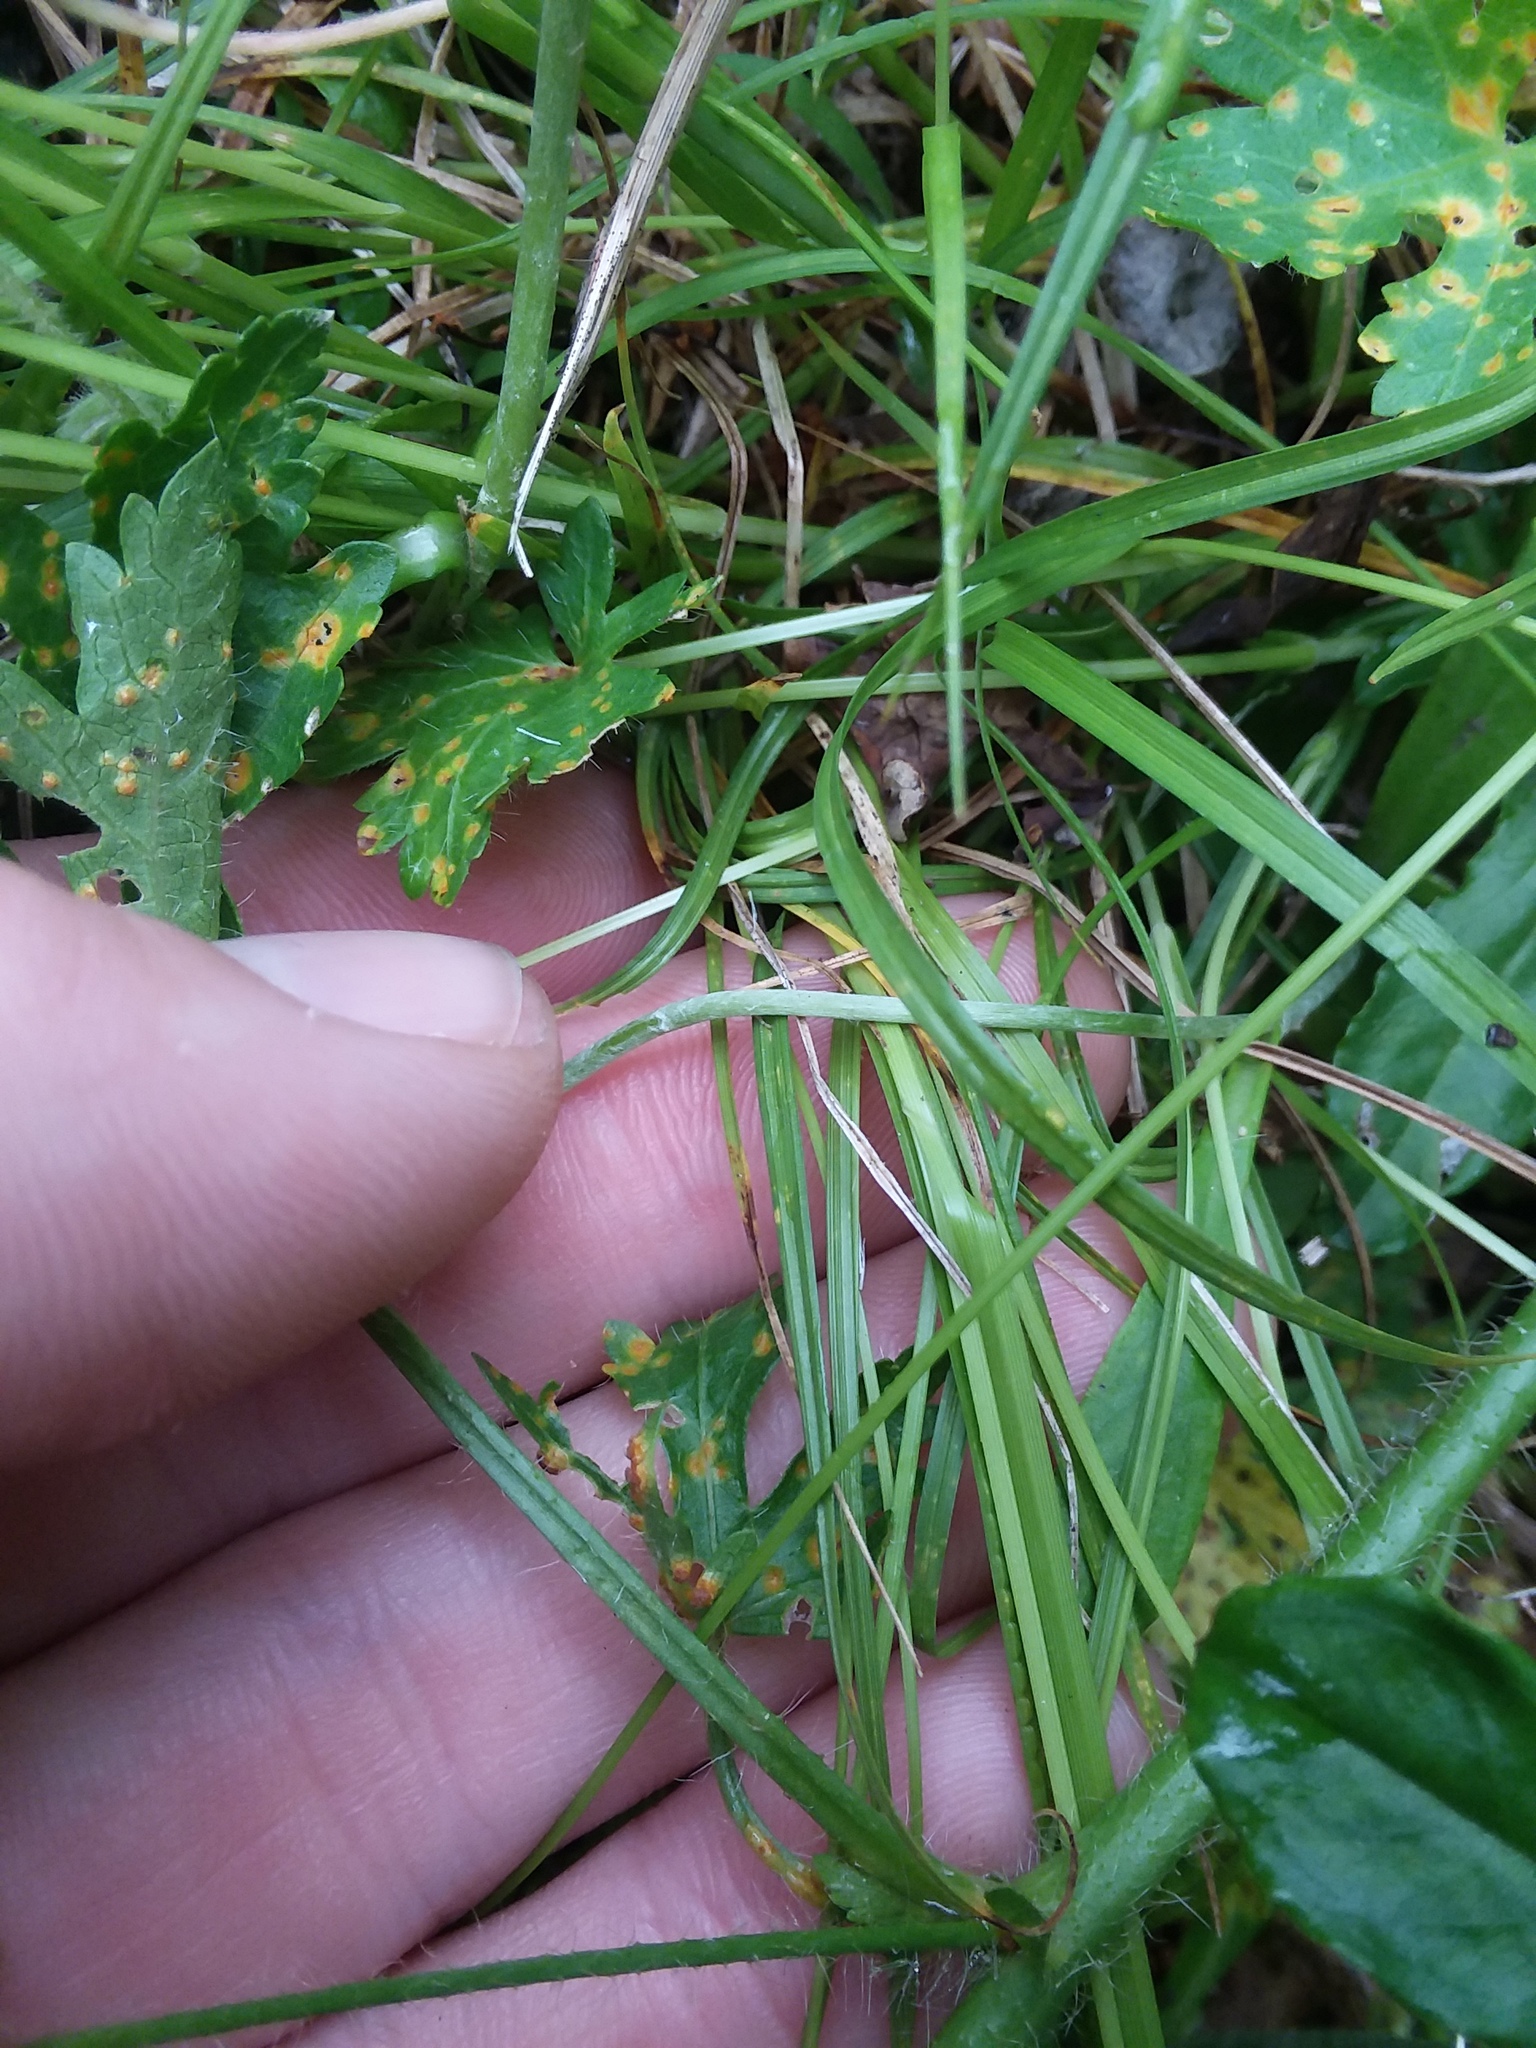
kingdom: Plantae
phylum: Tracheophyta
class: Liliopsida
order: Poales
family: Cyperaceae
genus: Carex
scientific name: Carex cephalophora
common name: Oval-headed sedge
